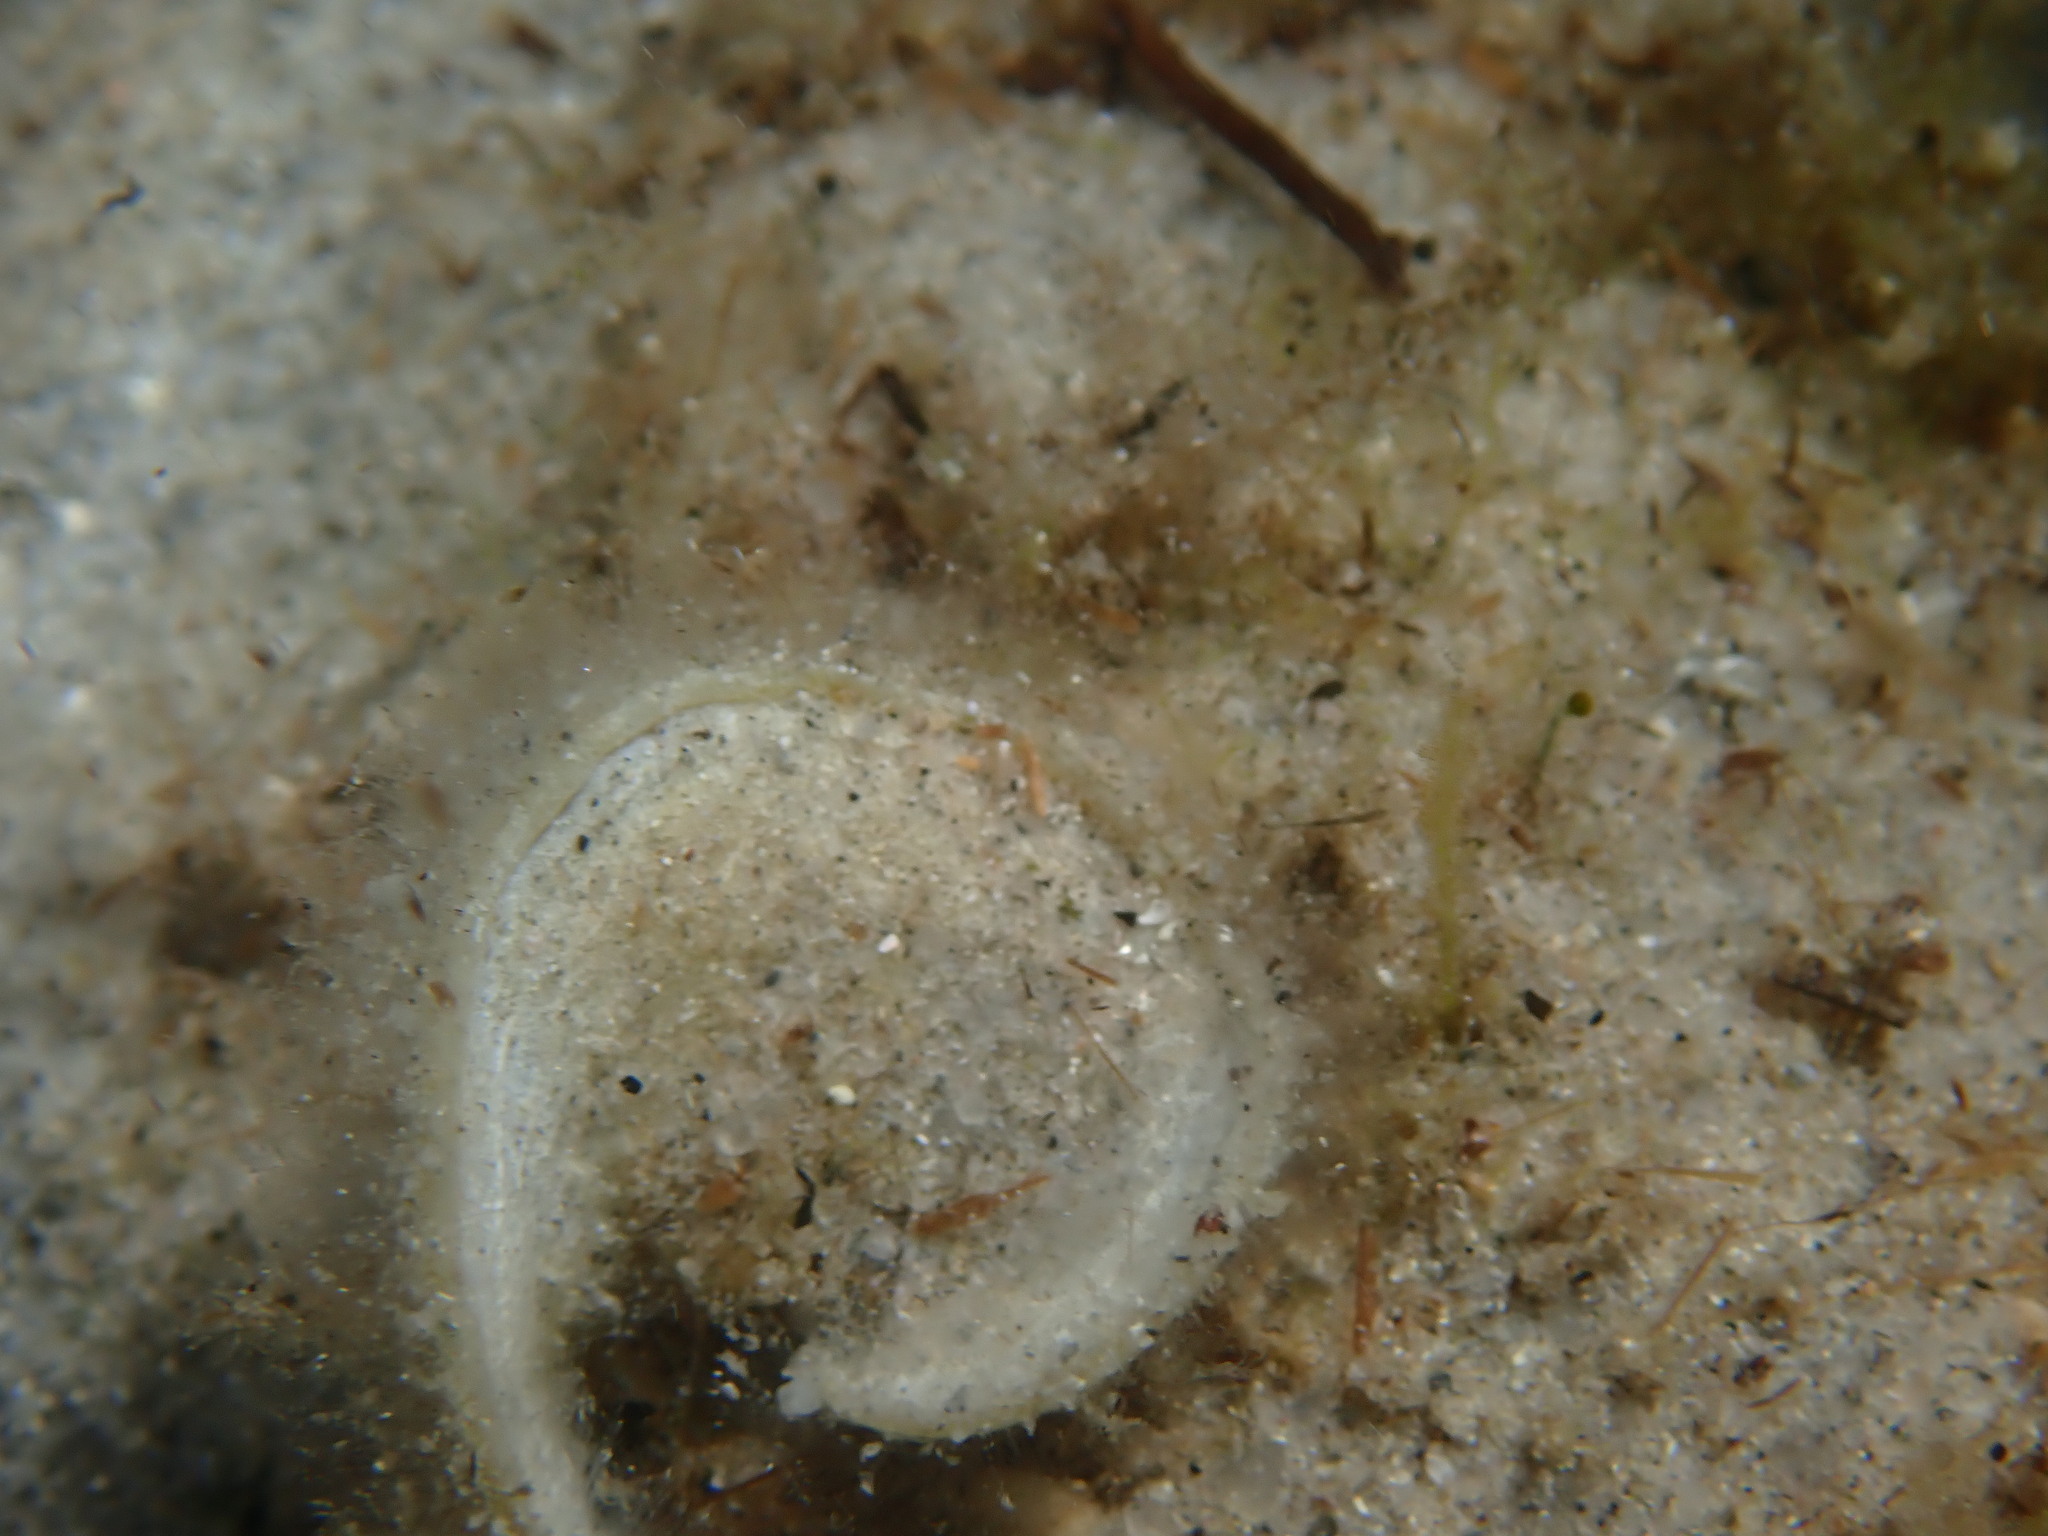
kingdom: Chromista
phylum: Ochrophyta
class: Phaeophyceae
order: Dictyotales
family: Dictyotaceae
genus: Padina
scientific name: Padina
